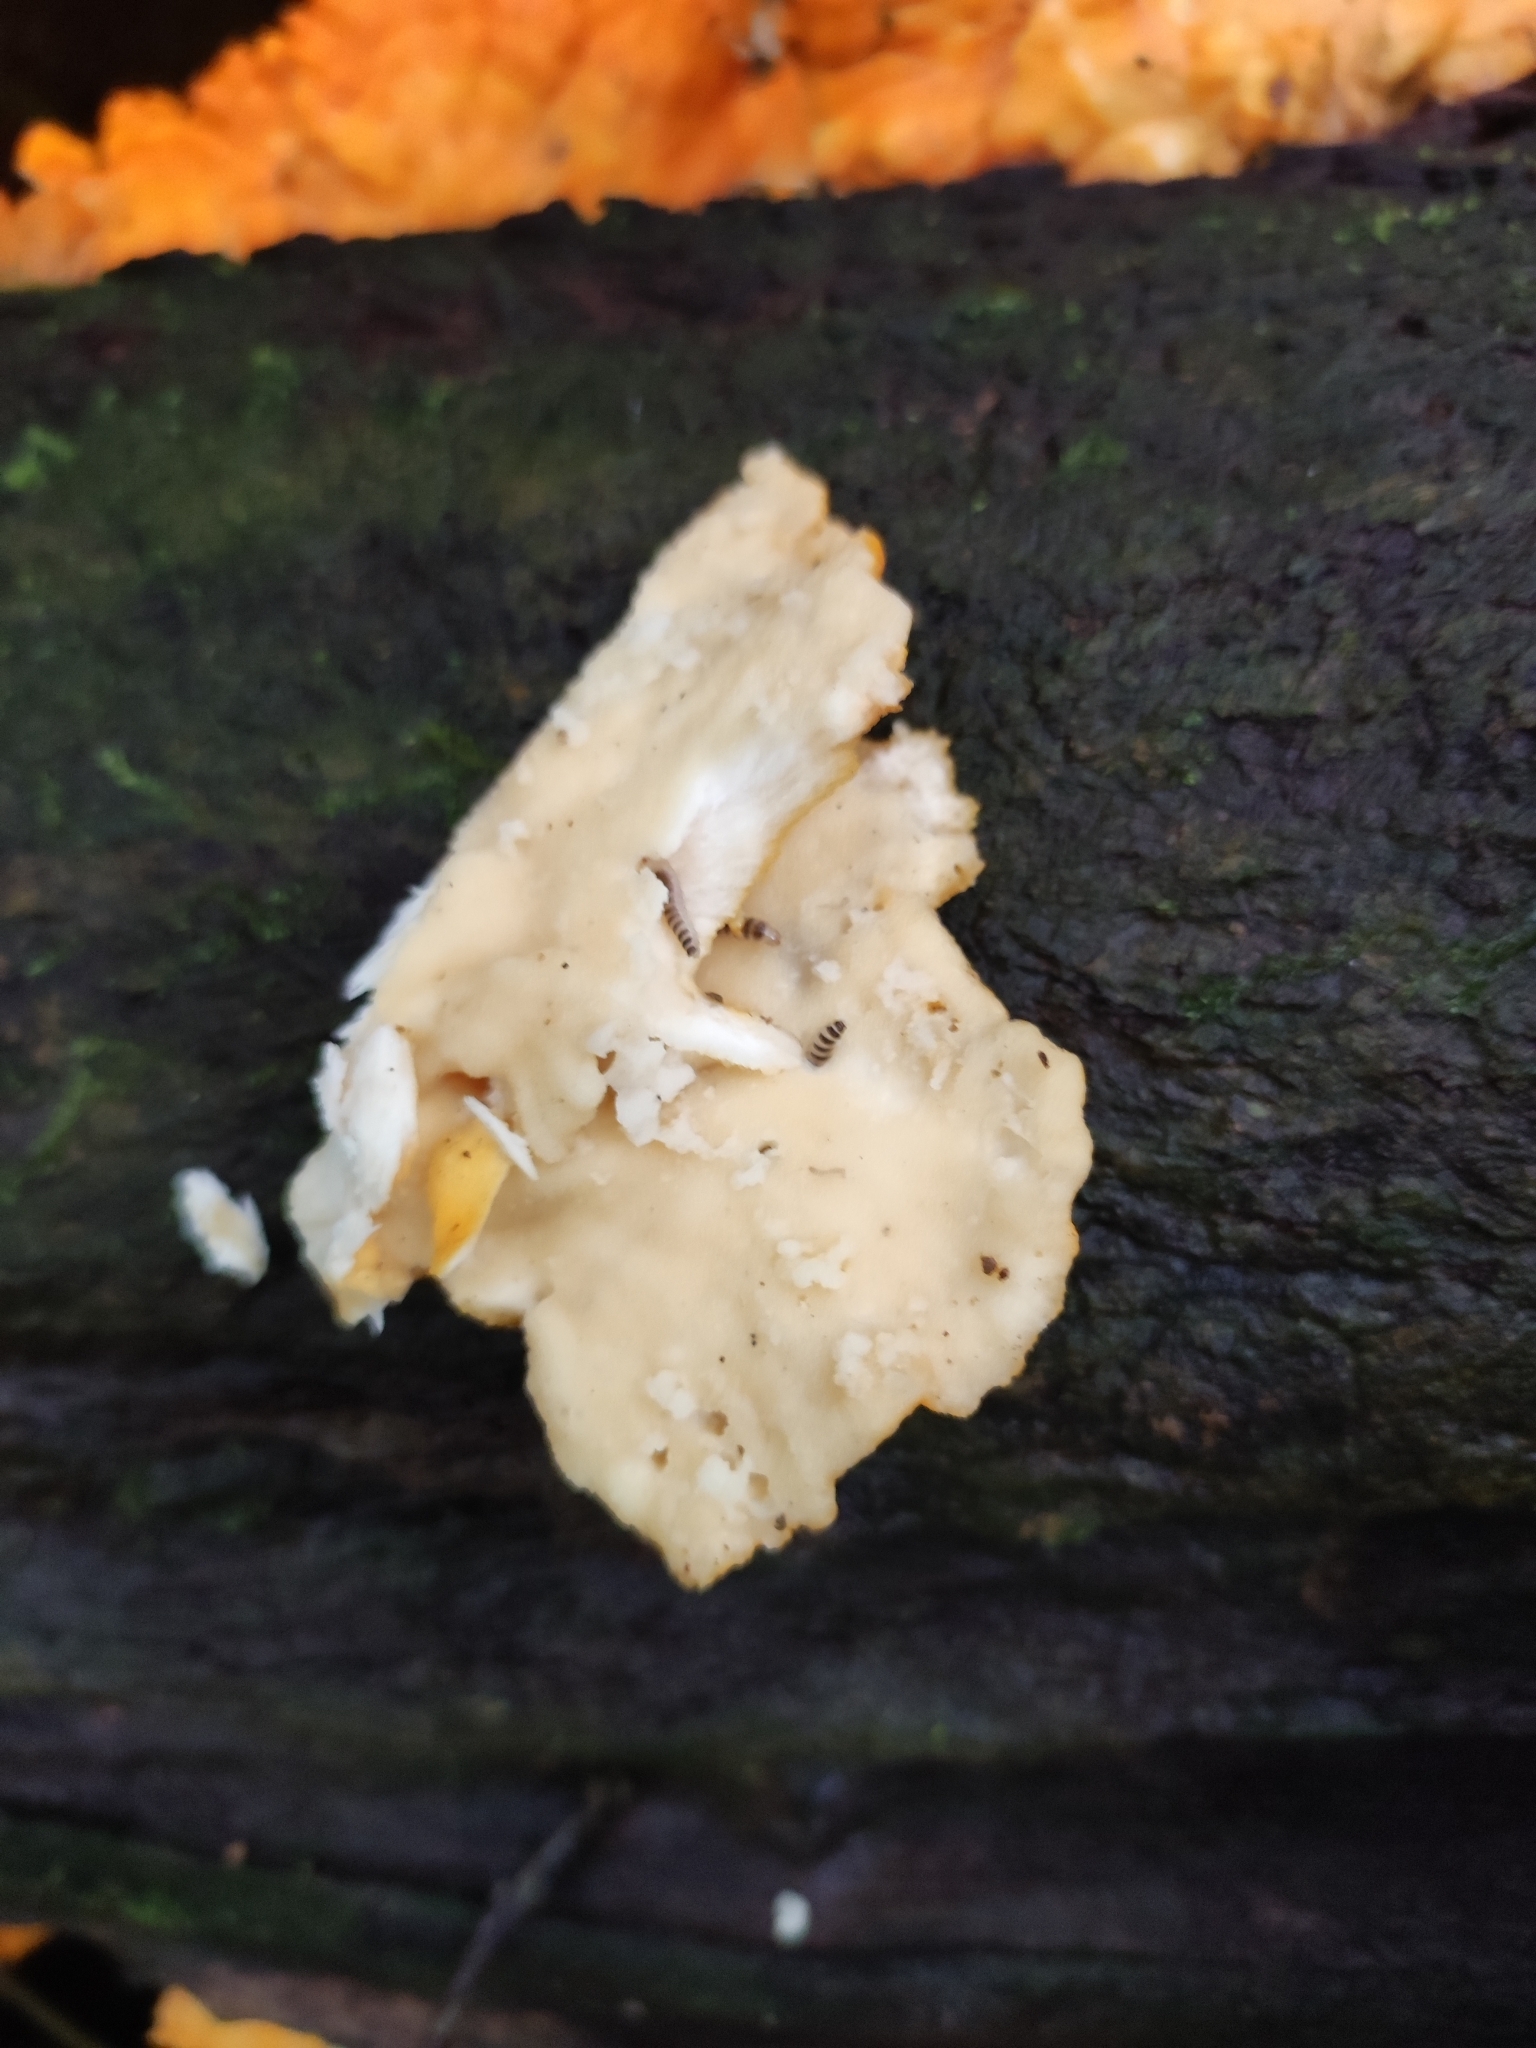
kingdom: Fungi
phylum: Basidiomycota
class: Agaricomycetes
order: Polyporales
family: Laetiporaceae
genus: Laetiporus
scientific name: Laetiporus sulphureus
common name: Chicken of the woods
